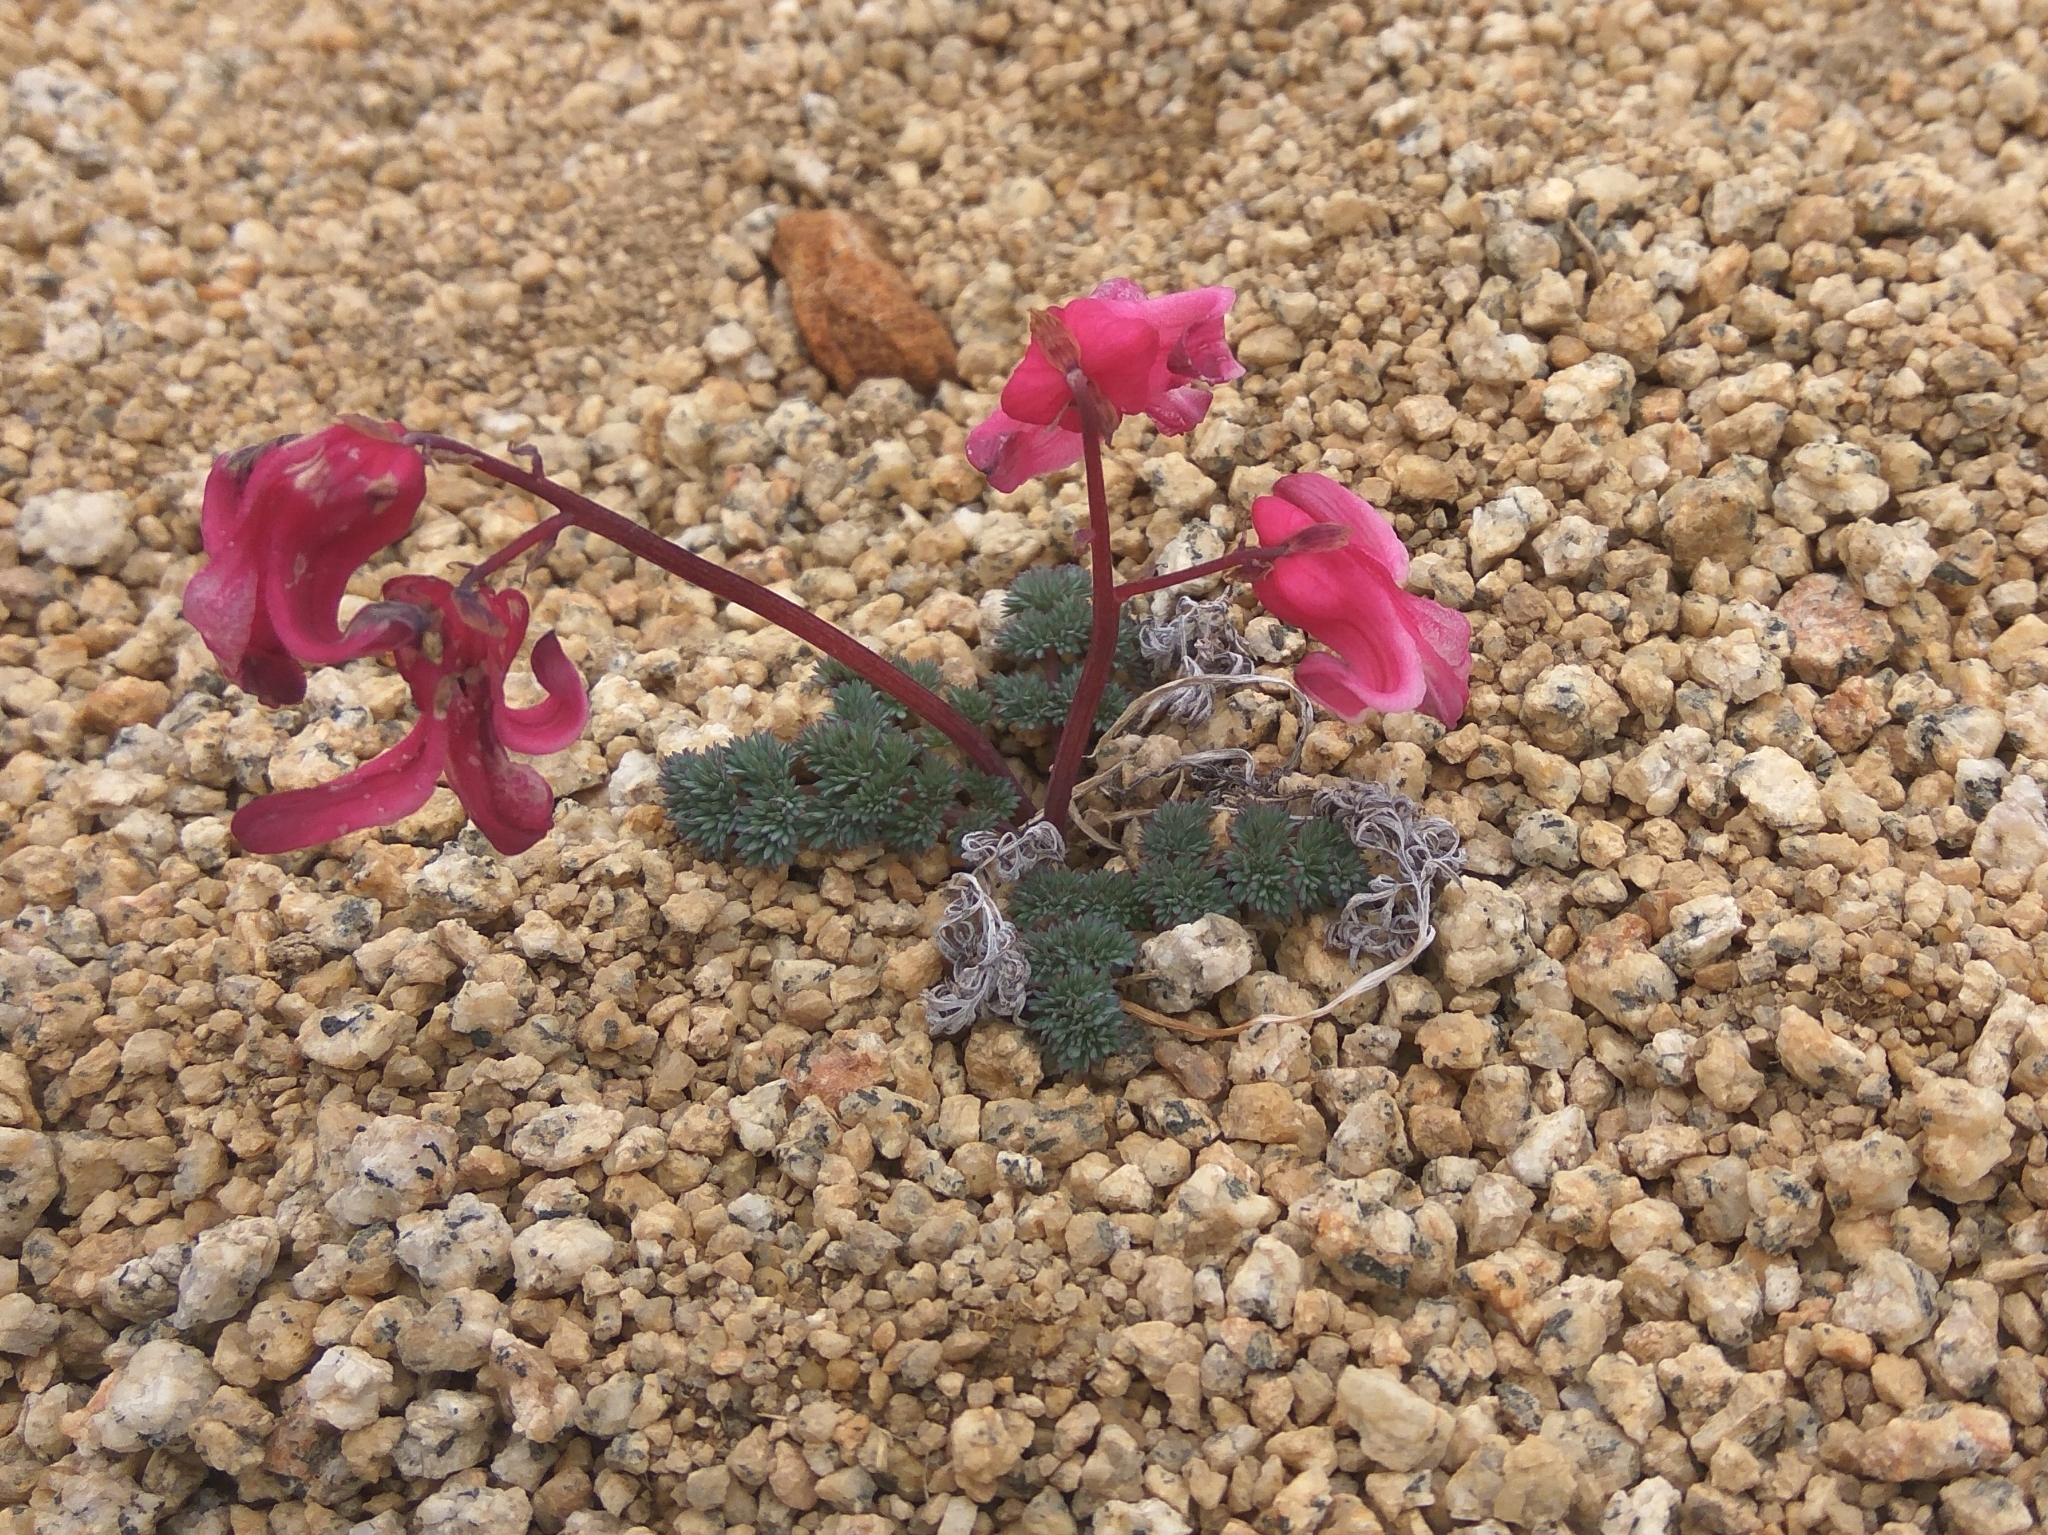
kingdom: Plantae
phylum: Tracheophyta
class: Magnoliopsida
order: Ranunculales
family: Papaveraceae
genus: Dicentra
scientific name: Dicentra peregrina
